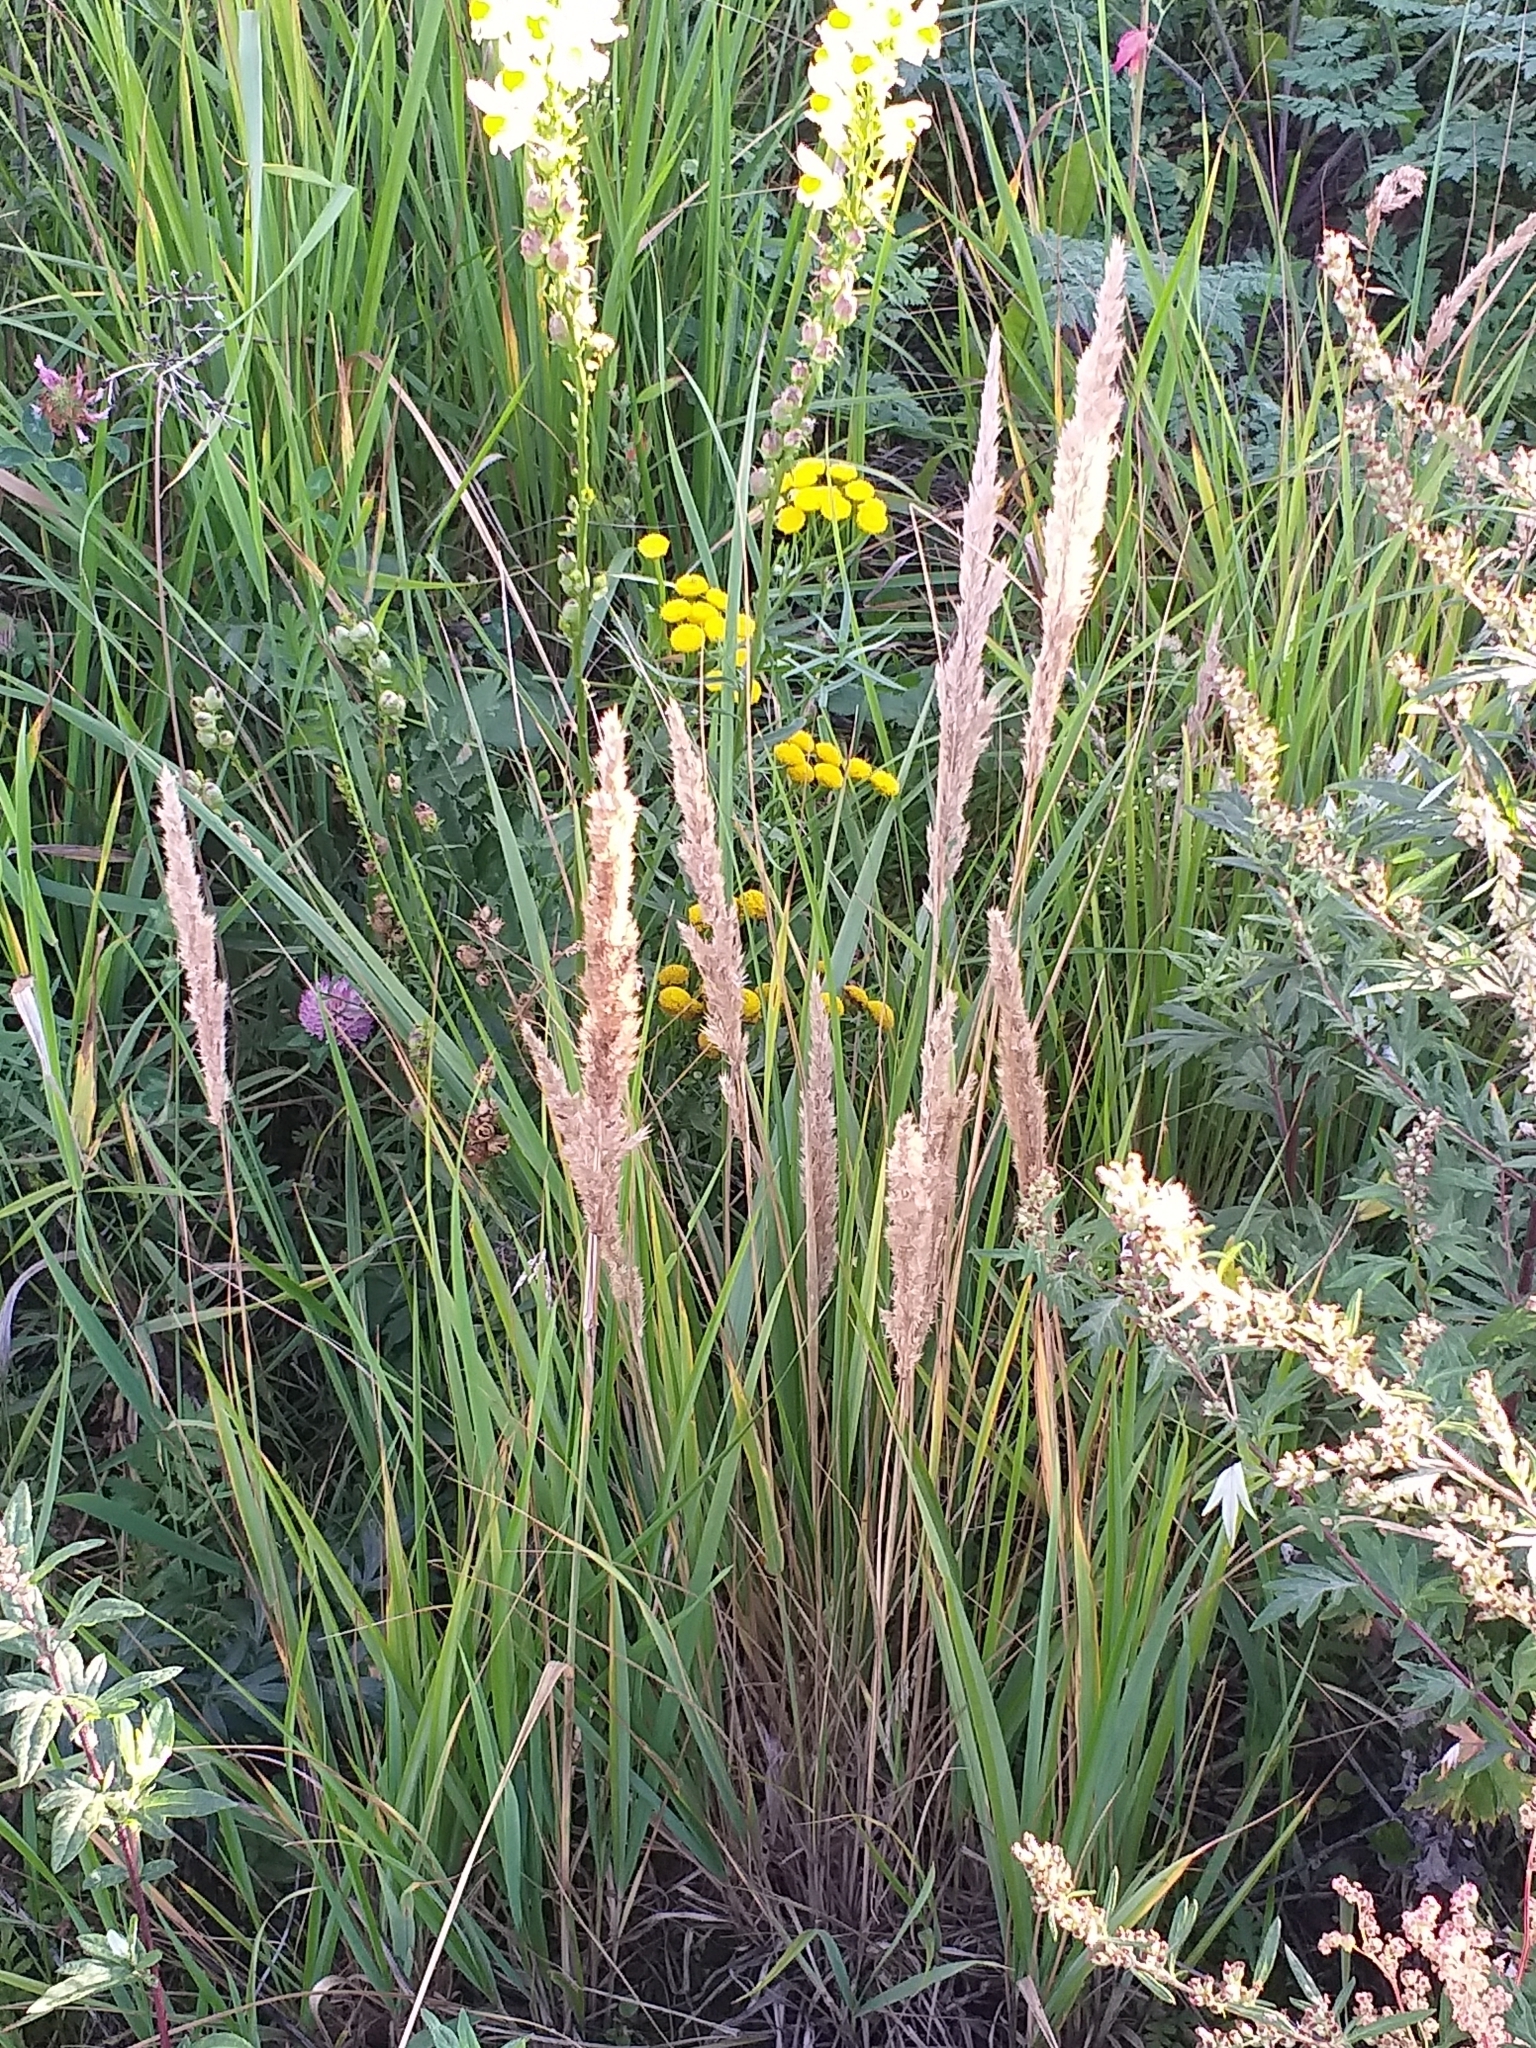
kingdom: Plantae
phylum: Tracheophyta
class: Liliopsida
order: Poales
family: Poaceae
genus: Calamagrostis
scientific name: Calamagrostis epigejos
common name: Wood small-reed
